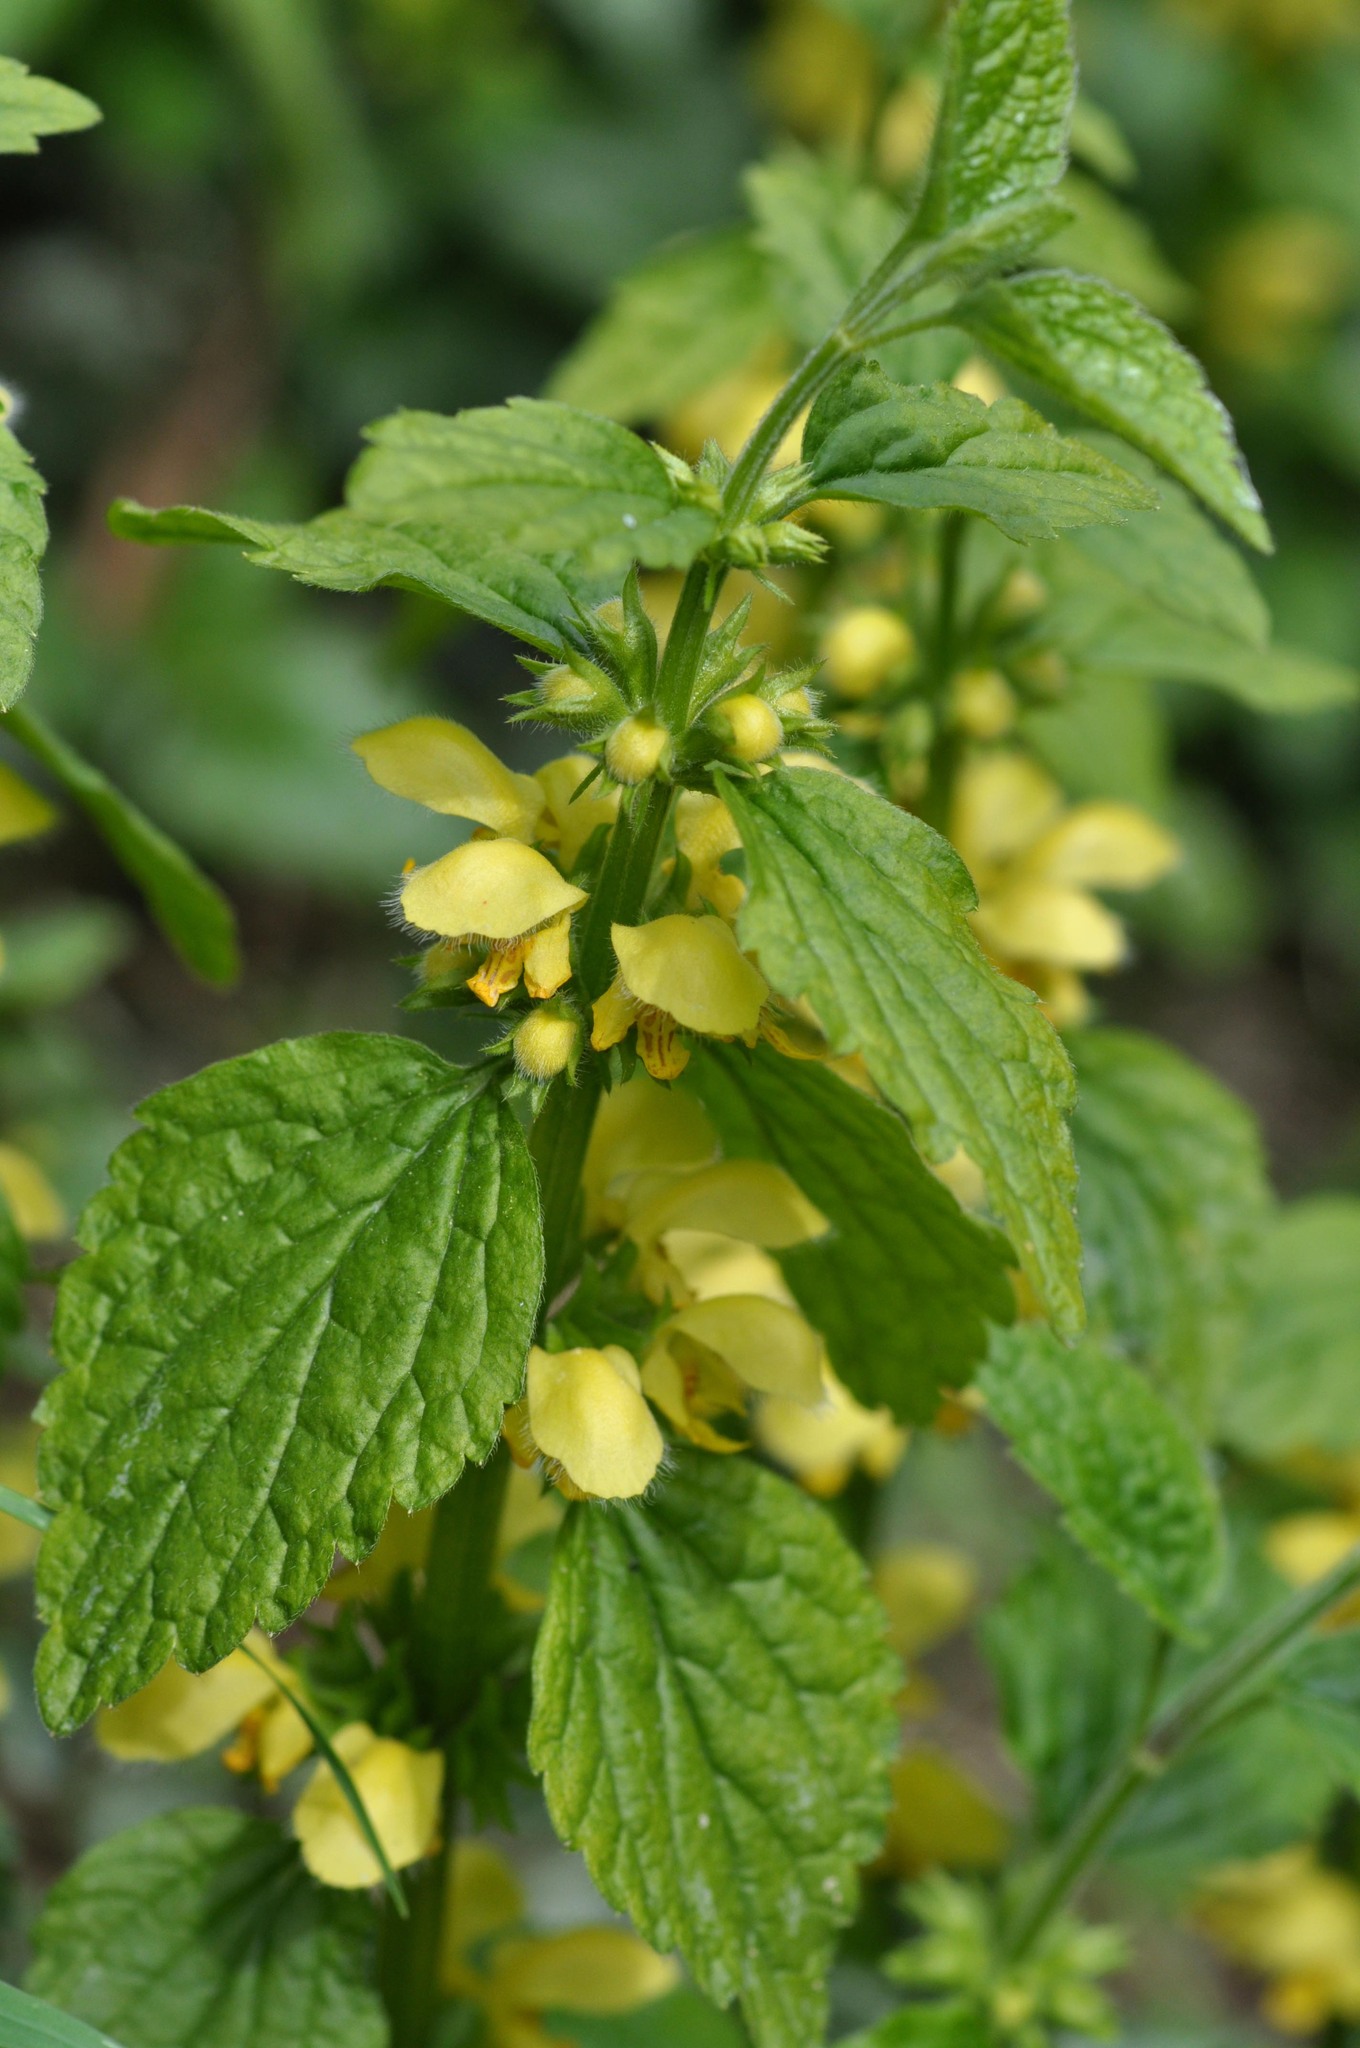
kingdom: Plantae
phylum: Tracheophyta
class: Magnoliopsida
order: Lamiales
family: Lamiaceae
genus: Lamium
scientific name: Lamium galeobdolon
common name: Yellow archangel
